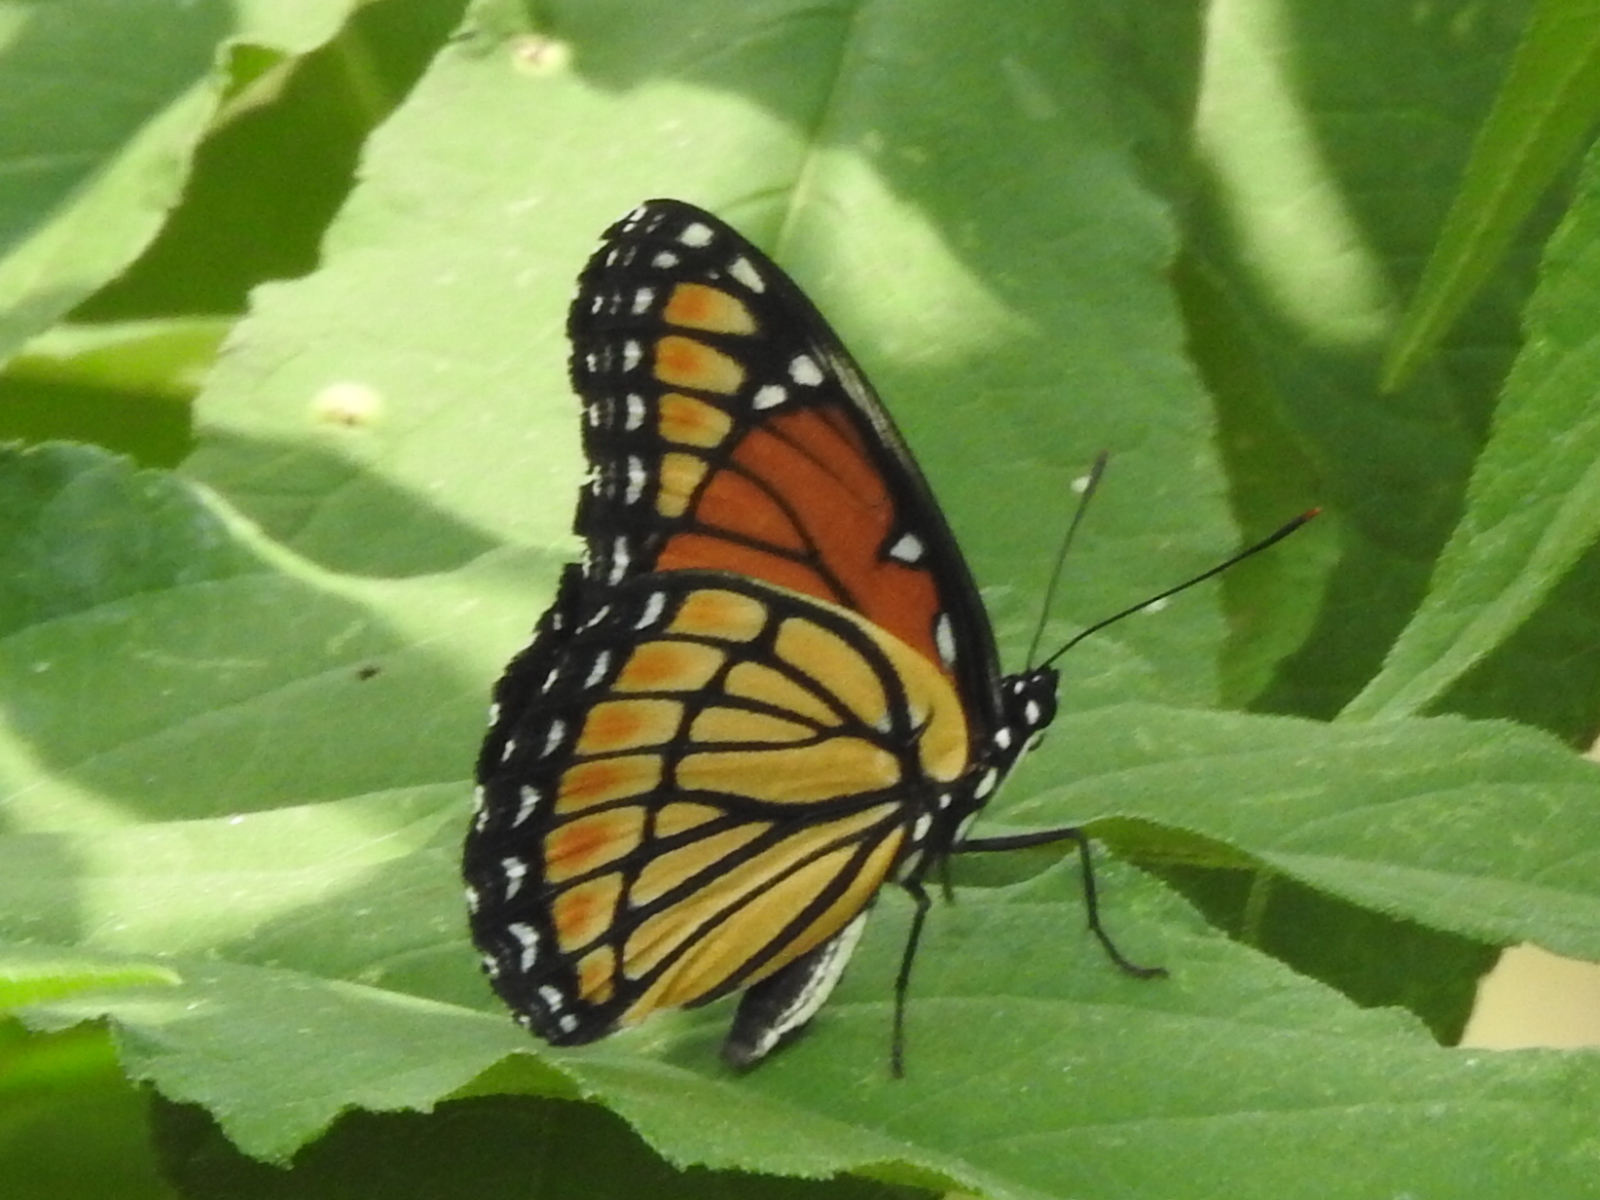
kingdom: Animalia
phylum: Arthropoda
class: Insecta
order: Lepidoptera
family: Nymphalidae
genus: Limenitis
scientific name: Limenitis archippus
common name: Viceroy
